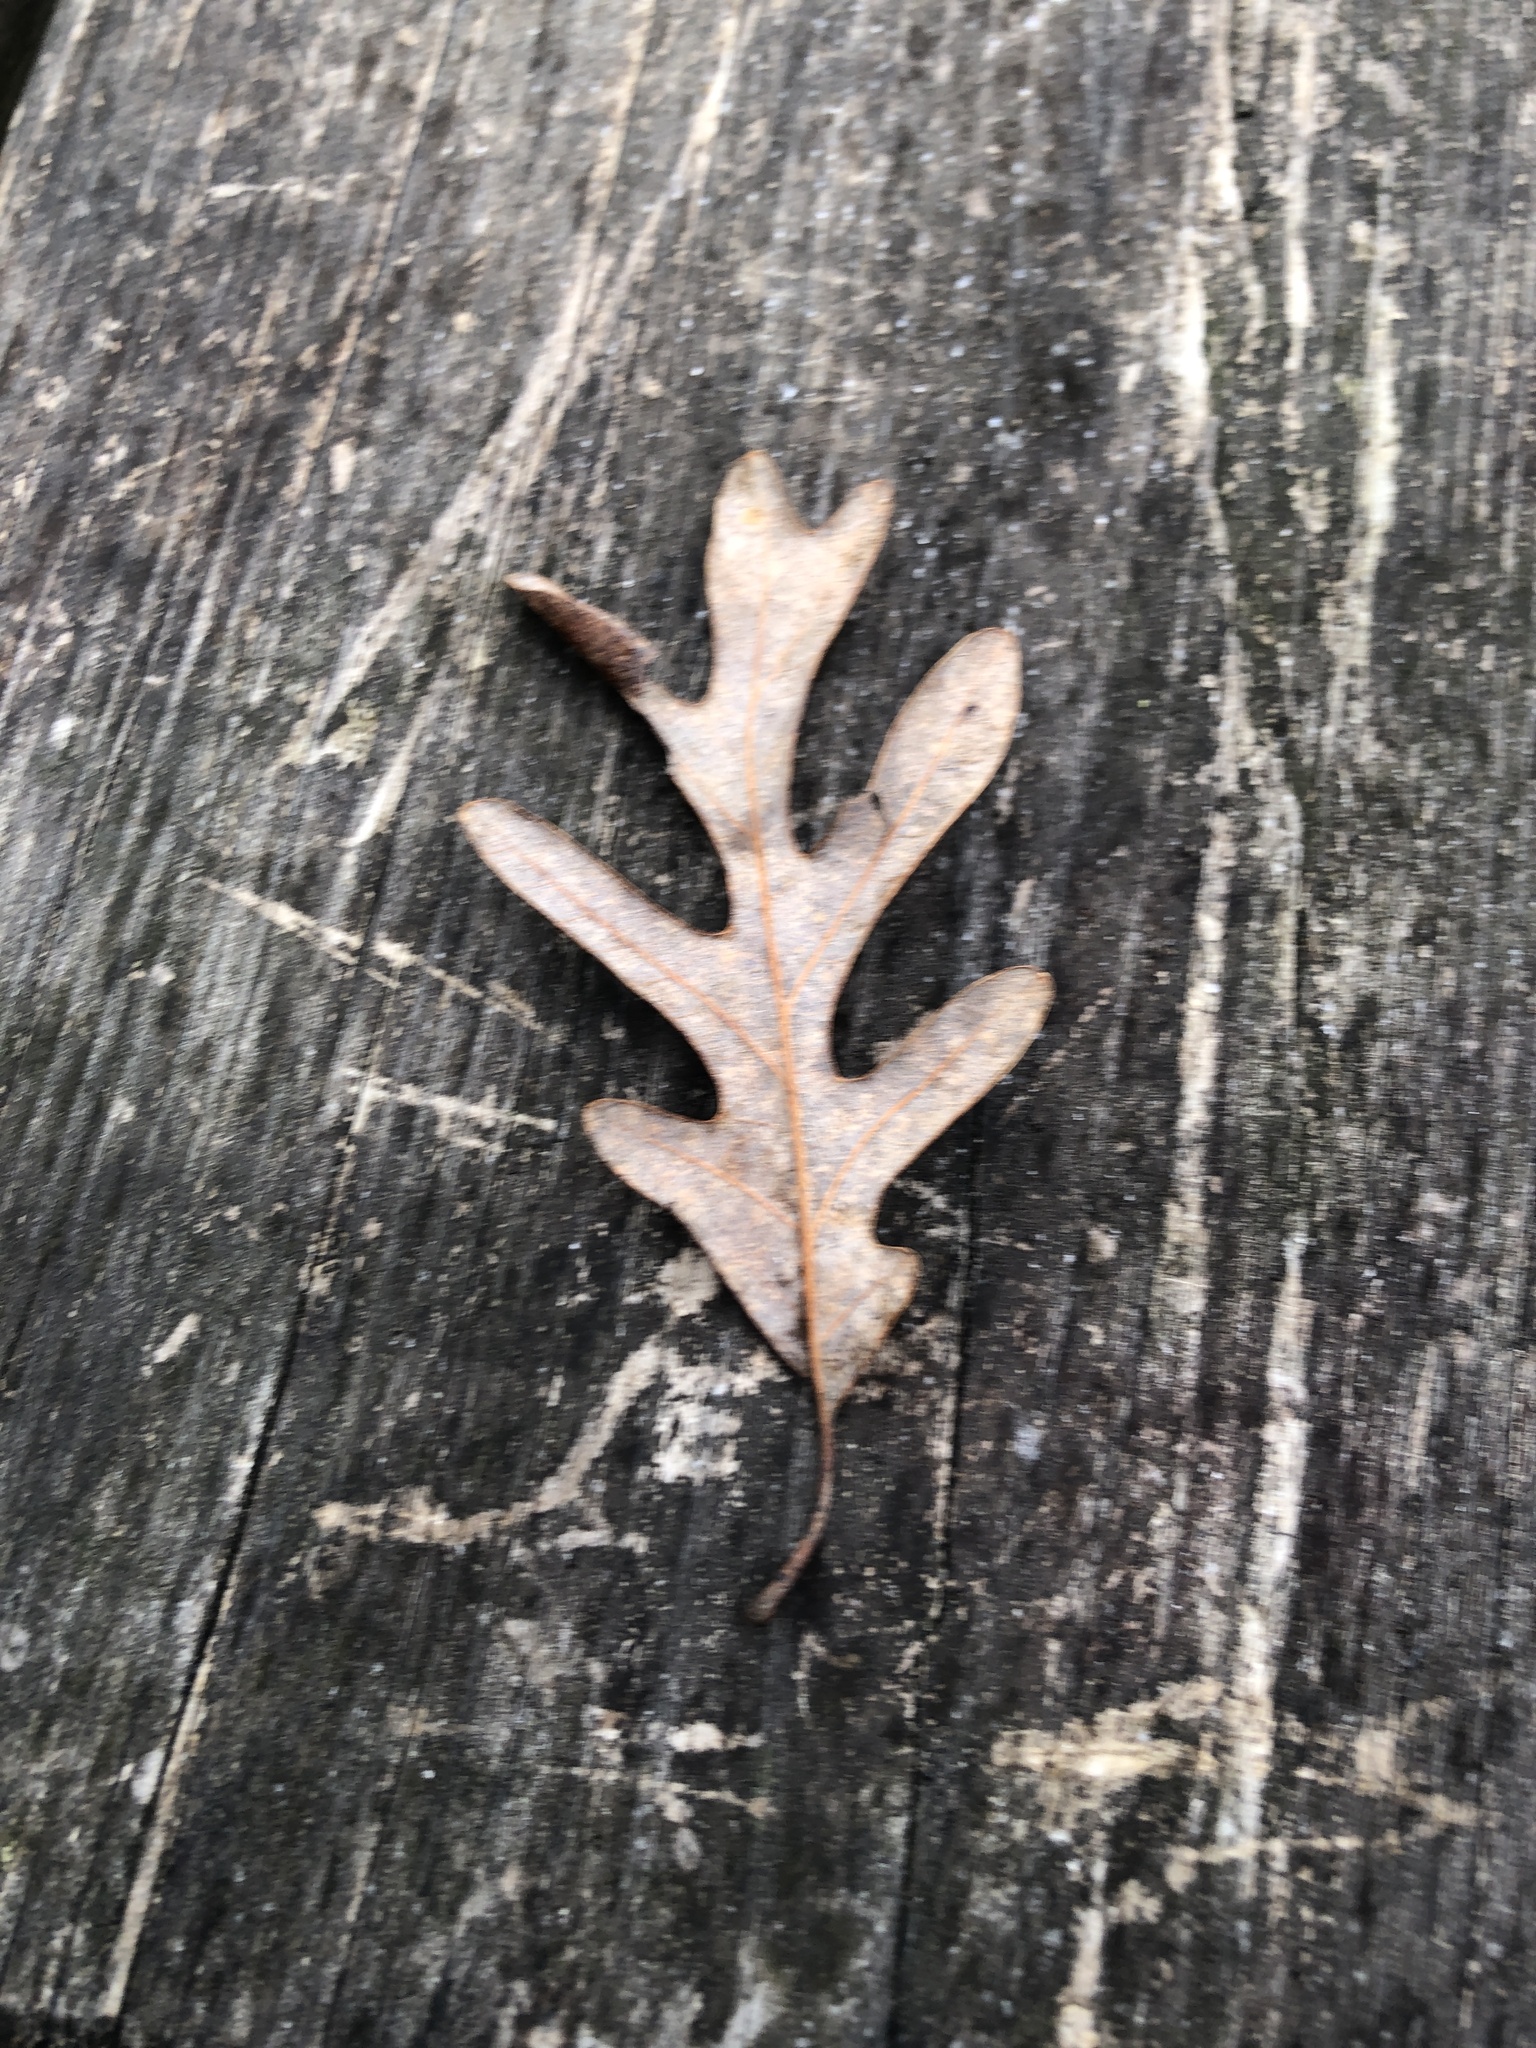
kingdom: Plantae
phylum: Tracheophyta
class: Magnoliopsida
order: Fagales
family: Fagaceae
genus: Quercus
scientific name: Quercus alba
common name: White oak
